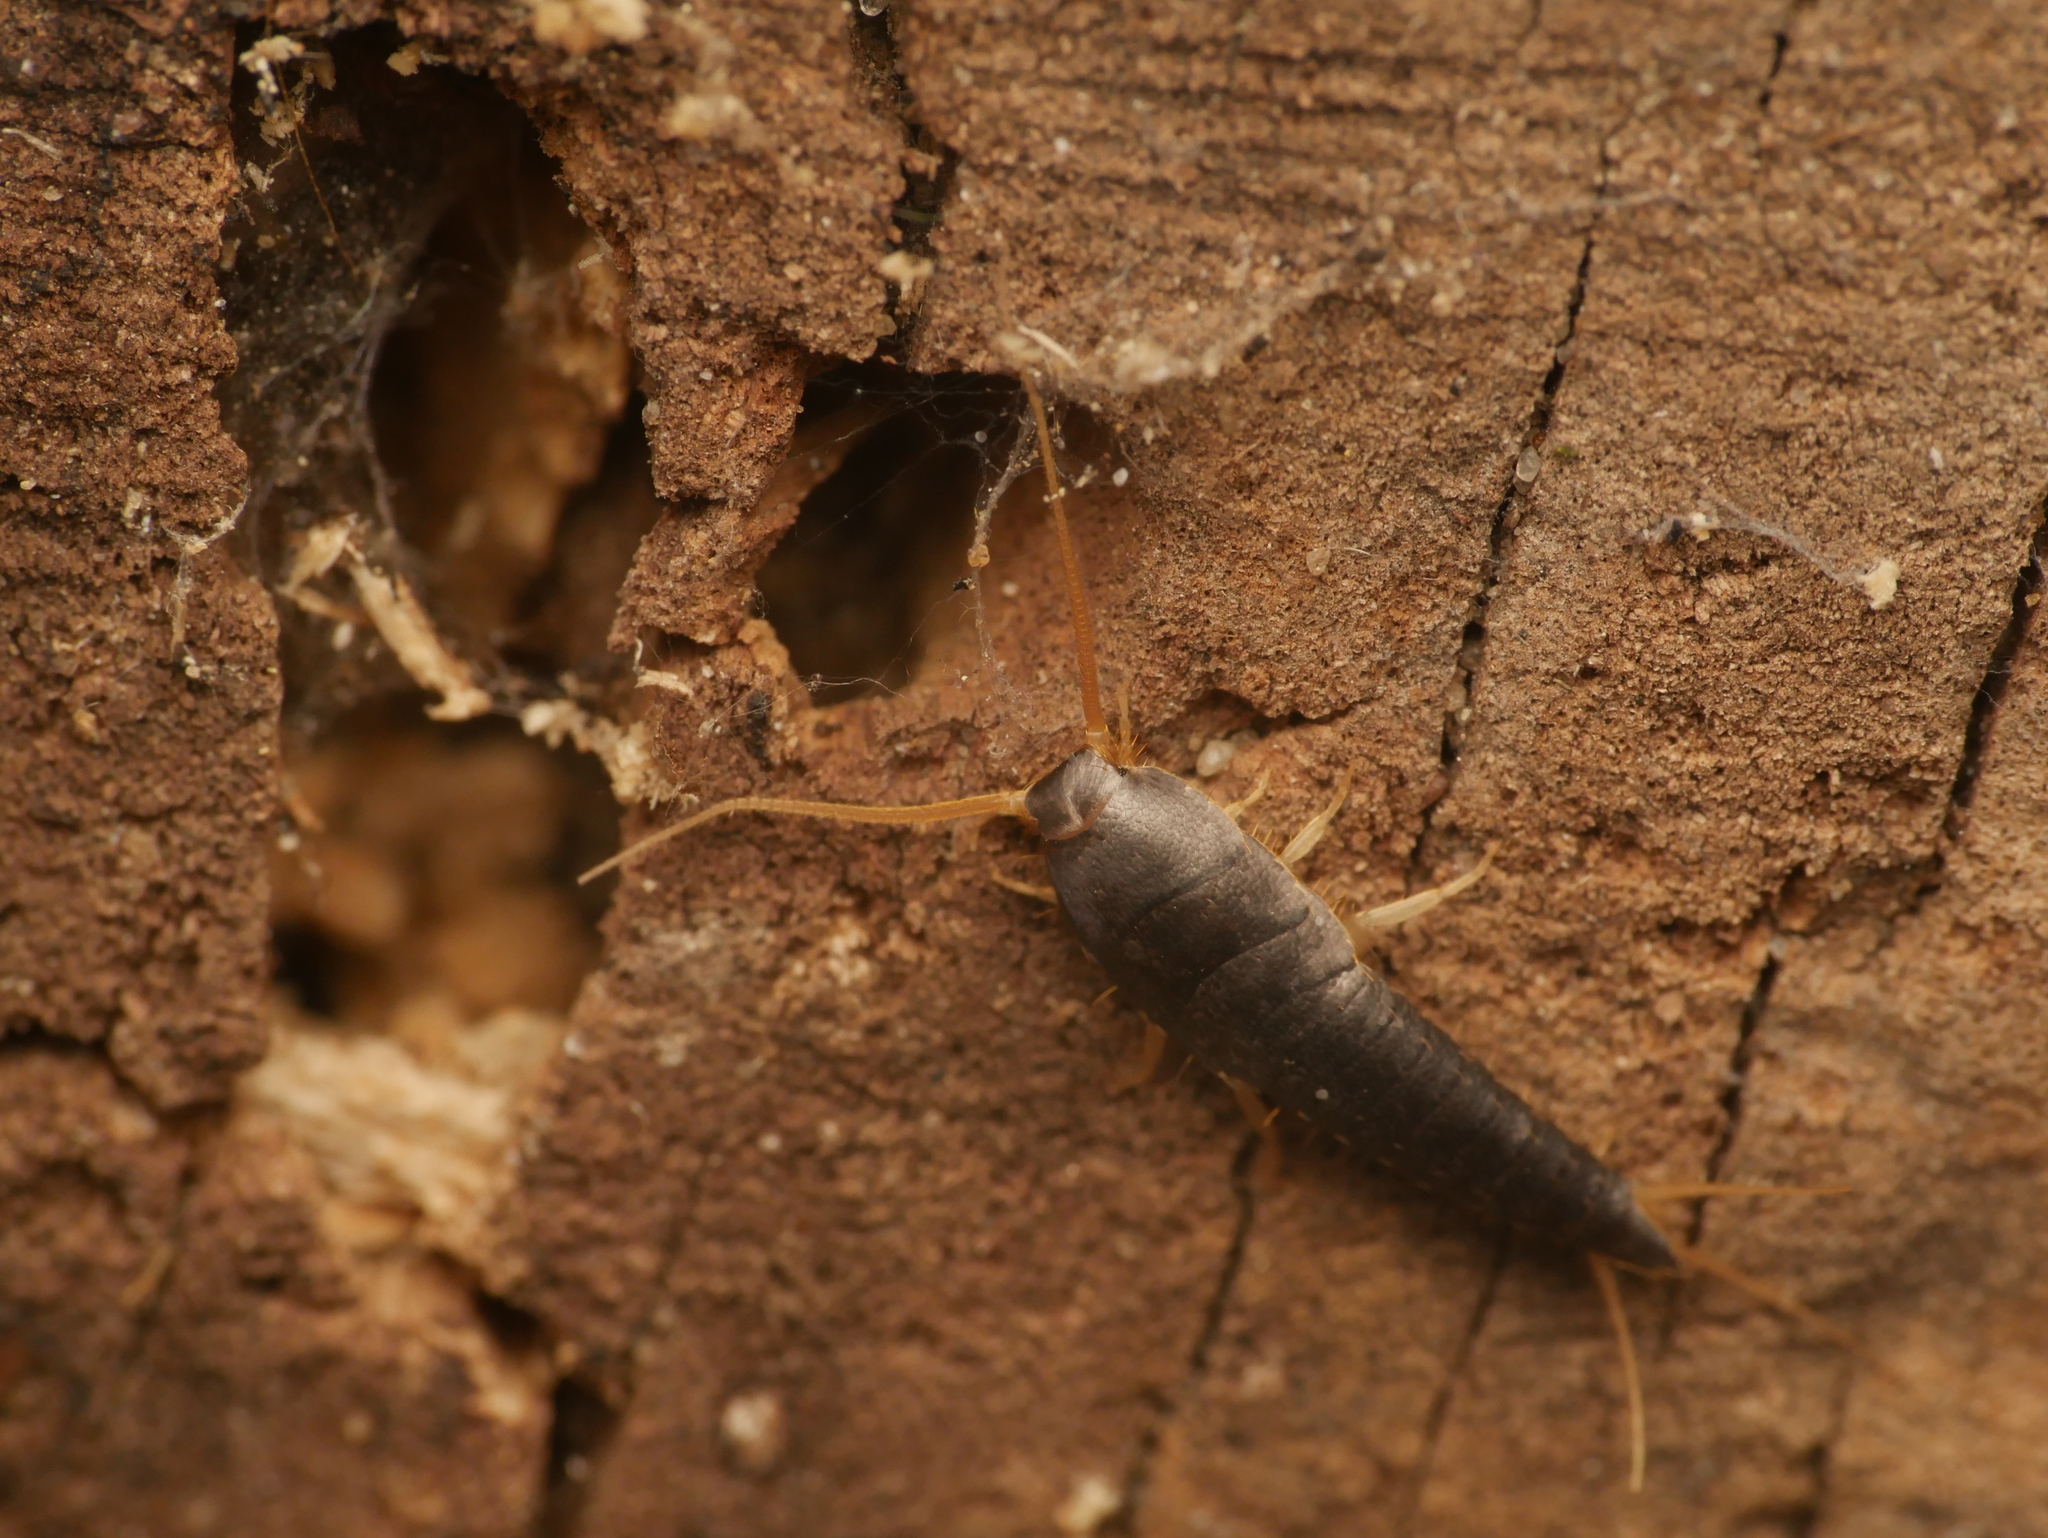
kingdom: Animalia
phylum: Arthropoda
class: Insecta
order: Zygentoma
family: Lepismatidae
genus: Lepisma
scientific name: Lepisma saccharinum
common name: Silverfish
